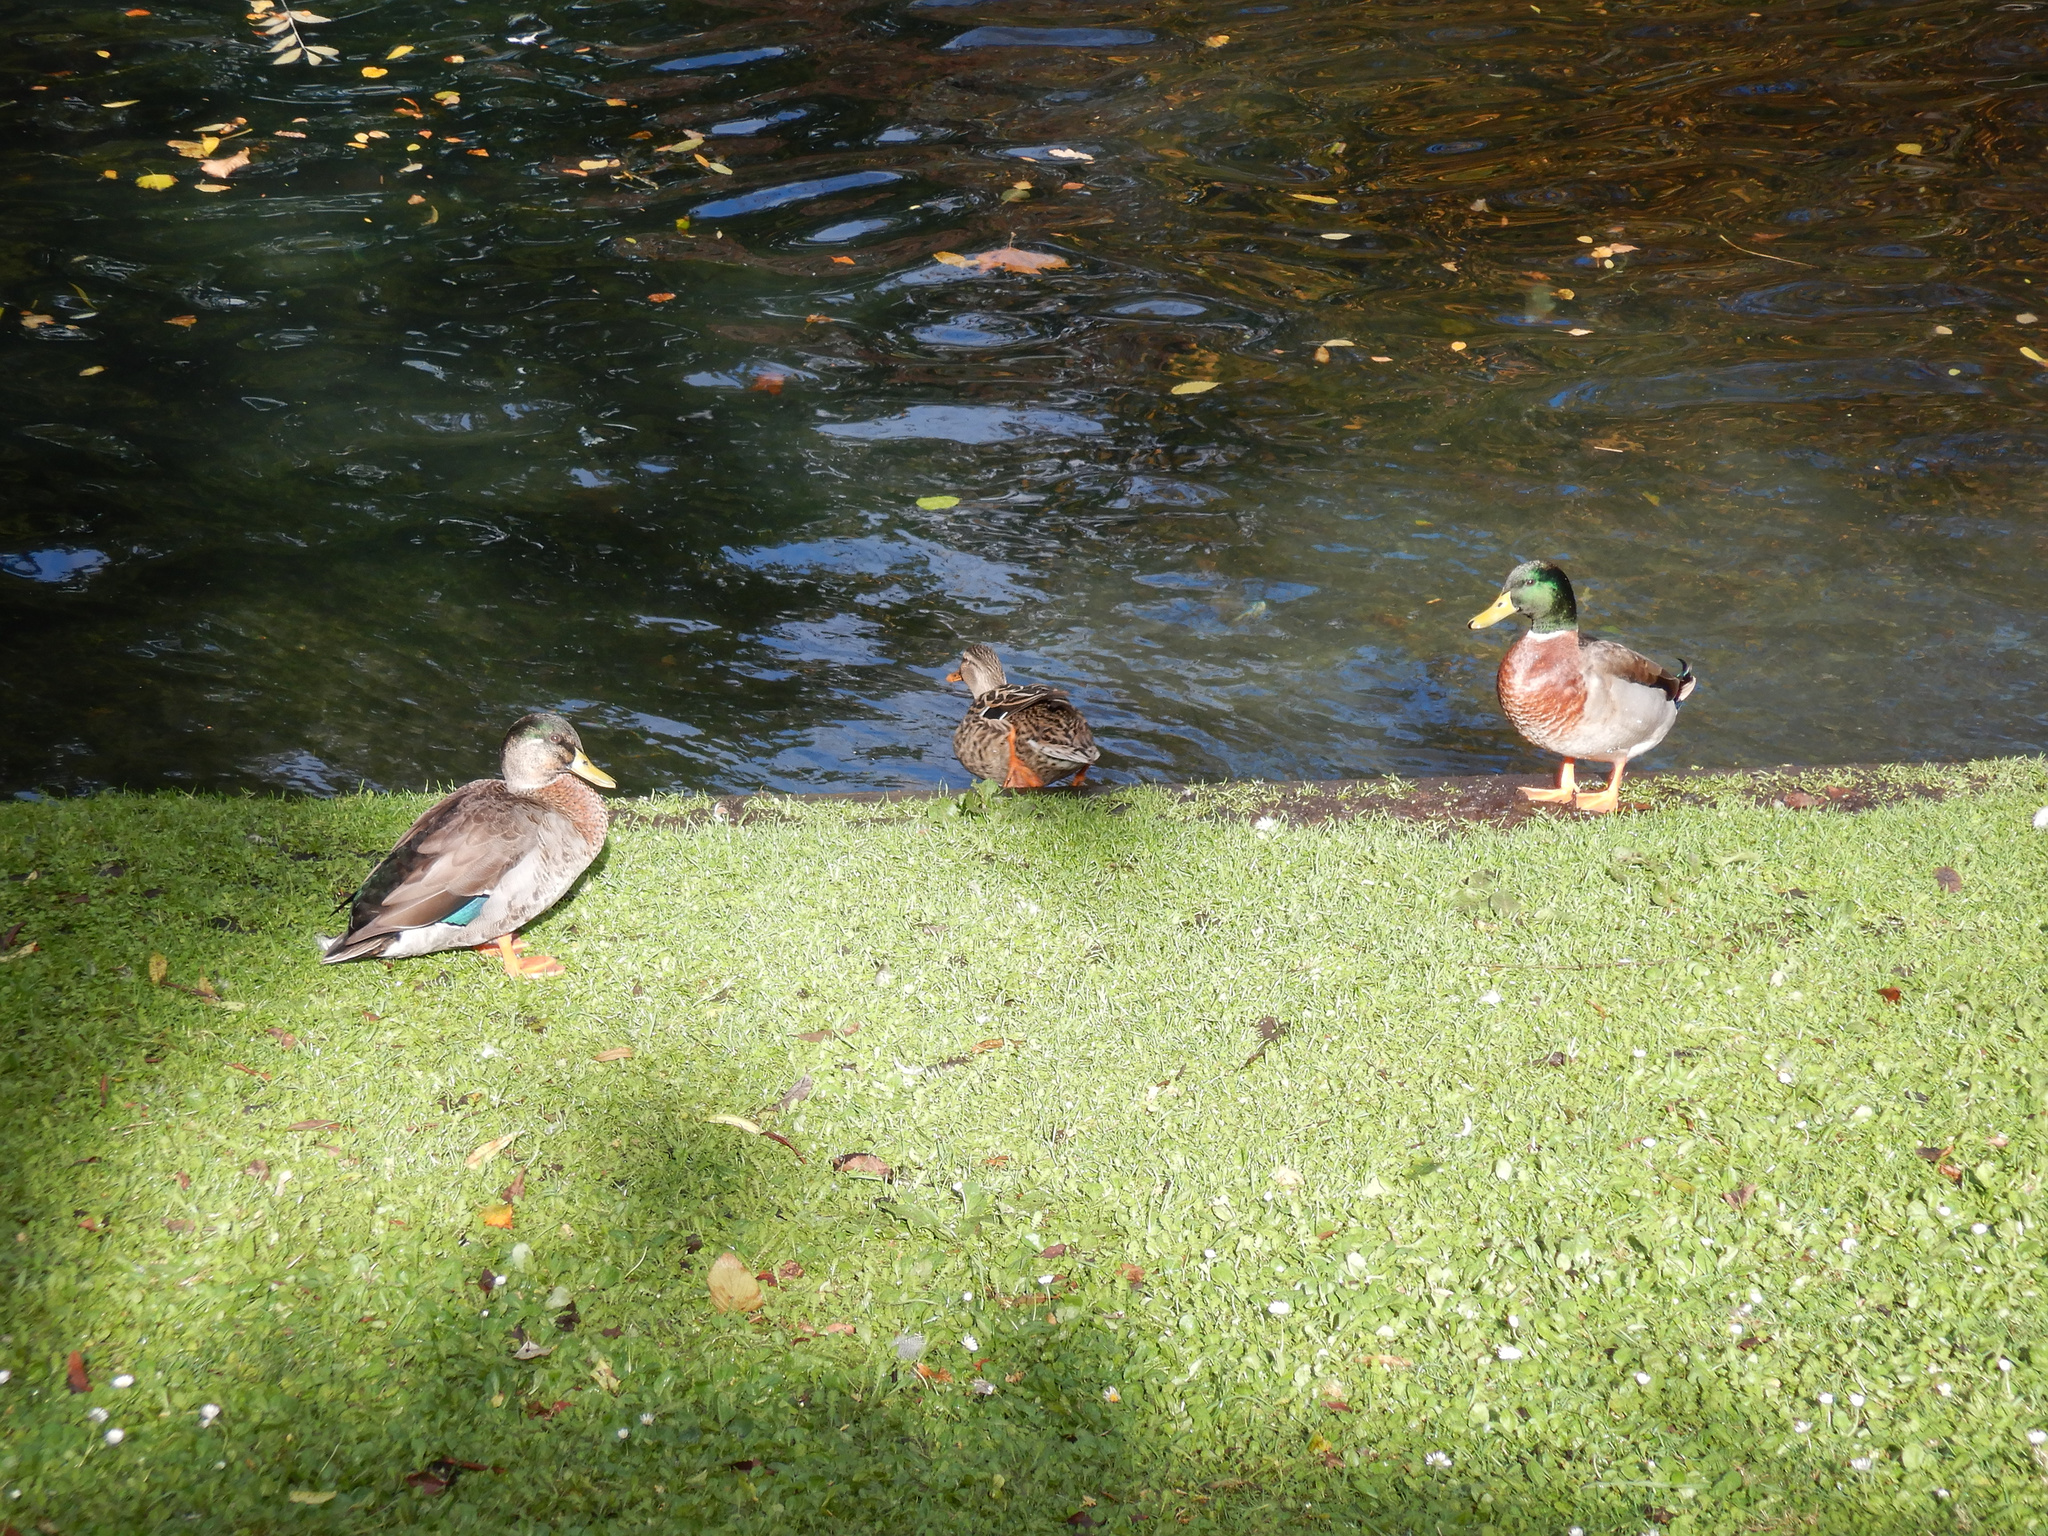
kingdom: Animalia
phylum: Chordata
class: Aves
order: Anseriformes
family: Anatidae
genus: Anas
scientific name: Anas platyrhynchos
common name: Mallard
